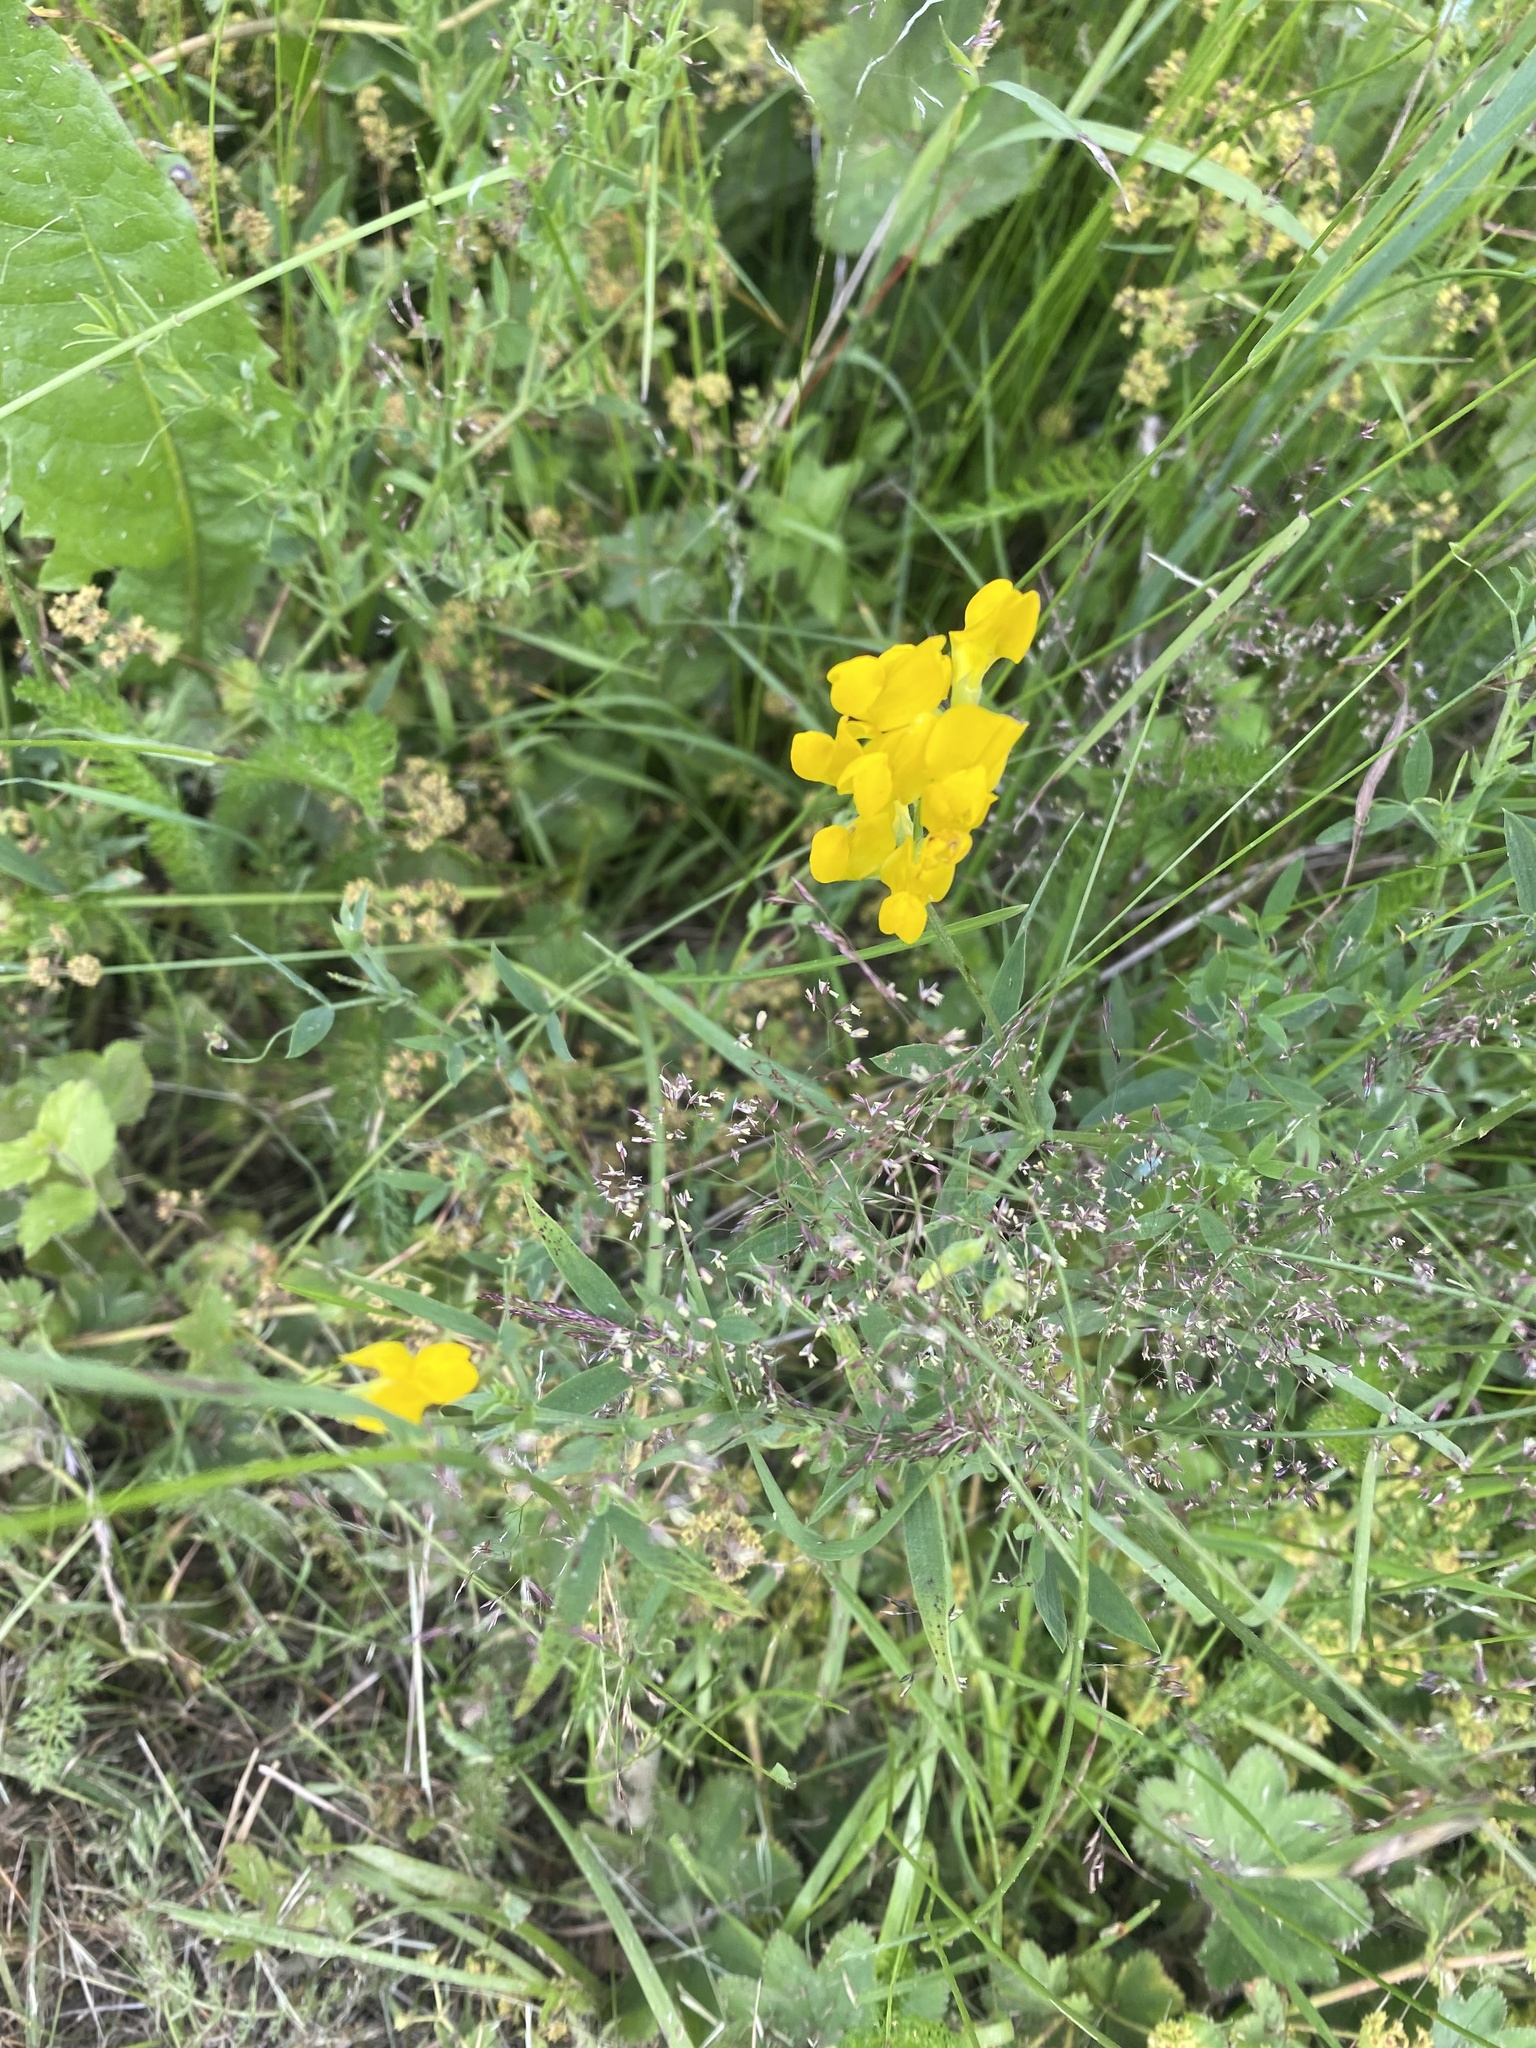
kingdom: Plantae
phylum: Tracheophyta
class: Magnoliopsida
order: Fabales
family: Fabaceae
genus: Lathyrus
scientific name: Lathyrus pratensis
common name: Meadow vetchling
